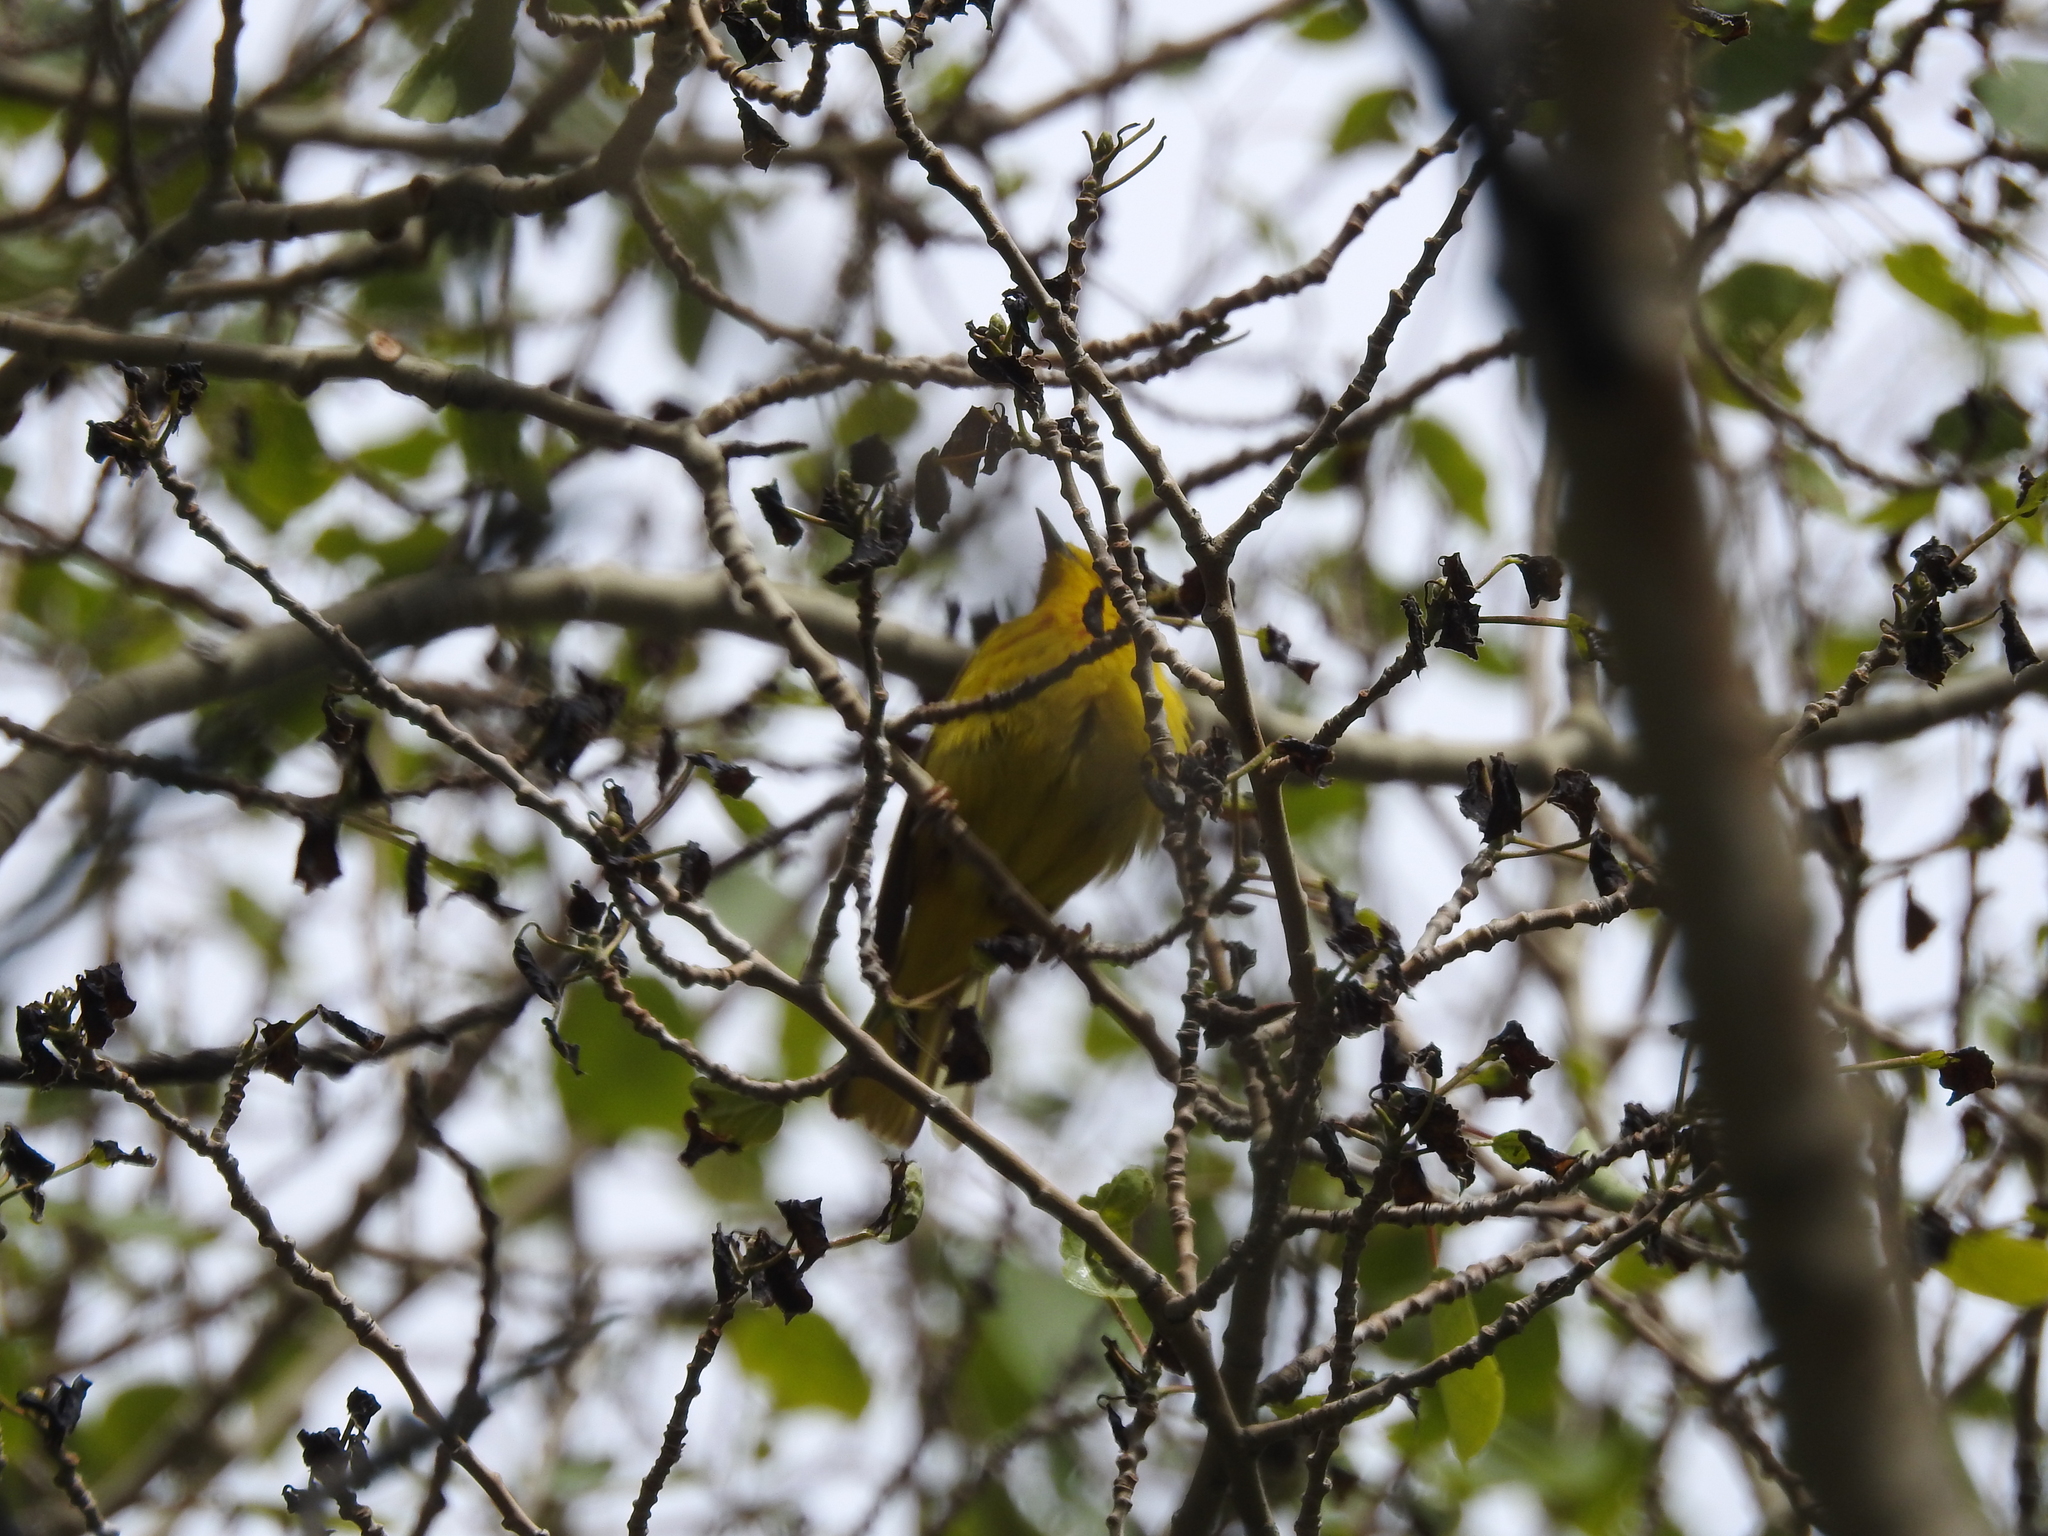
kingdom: Animalia
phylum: Chordata
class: Aves
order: Passeriformes
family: Parulidae
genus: Setophaga
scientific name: Setophaga petechia
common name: Yellow warbler
